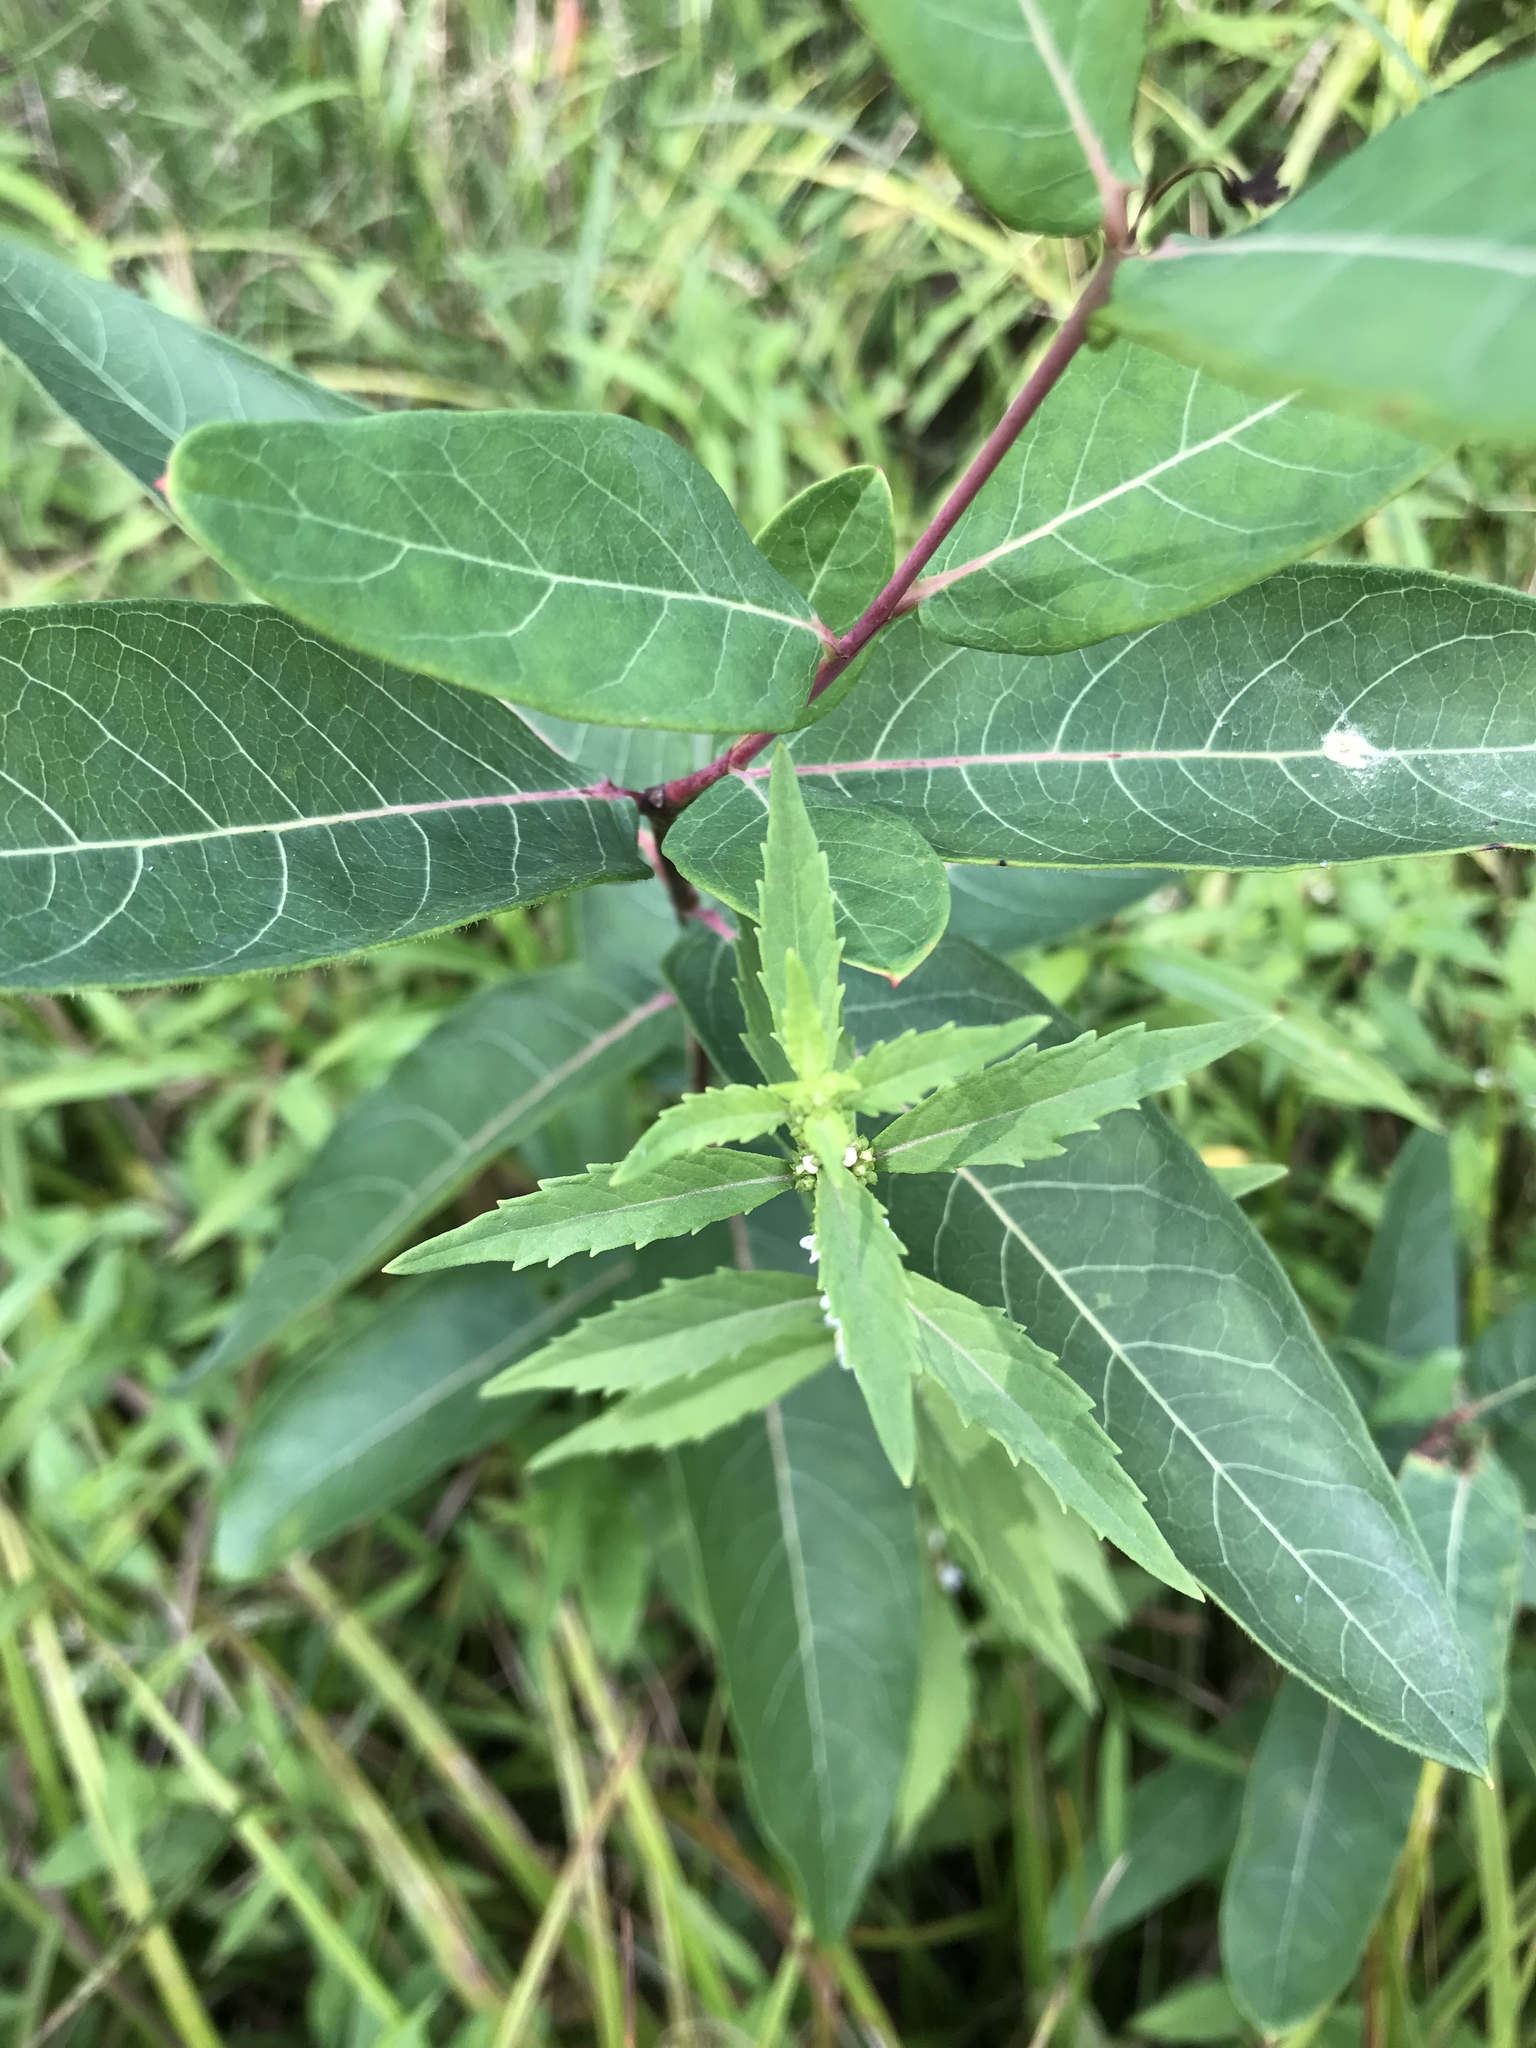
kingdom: Plantae
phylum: Tracheophyta
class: Magnoliopsida
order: Lamiales
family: Lamiaceae
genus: Lycopus
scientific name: Lycopus virginicus
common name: Bugleweed
